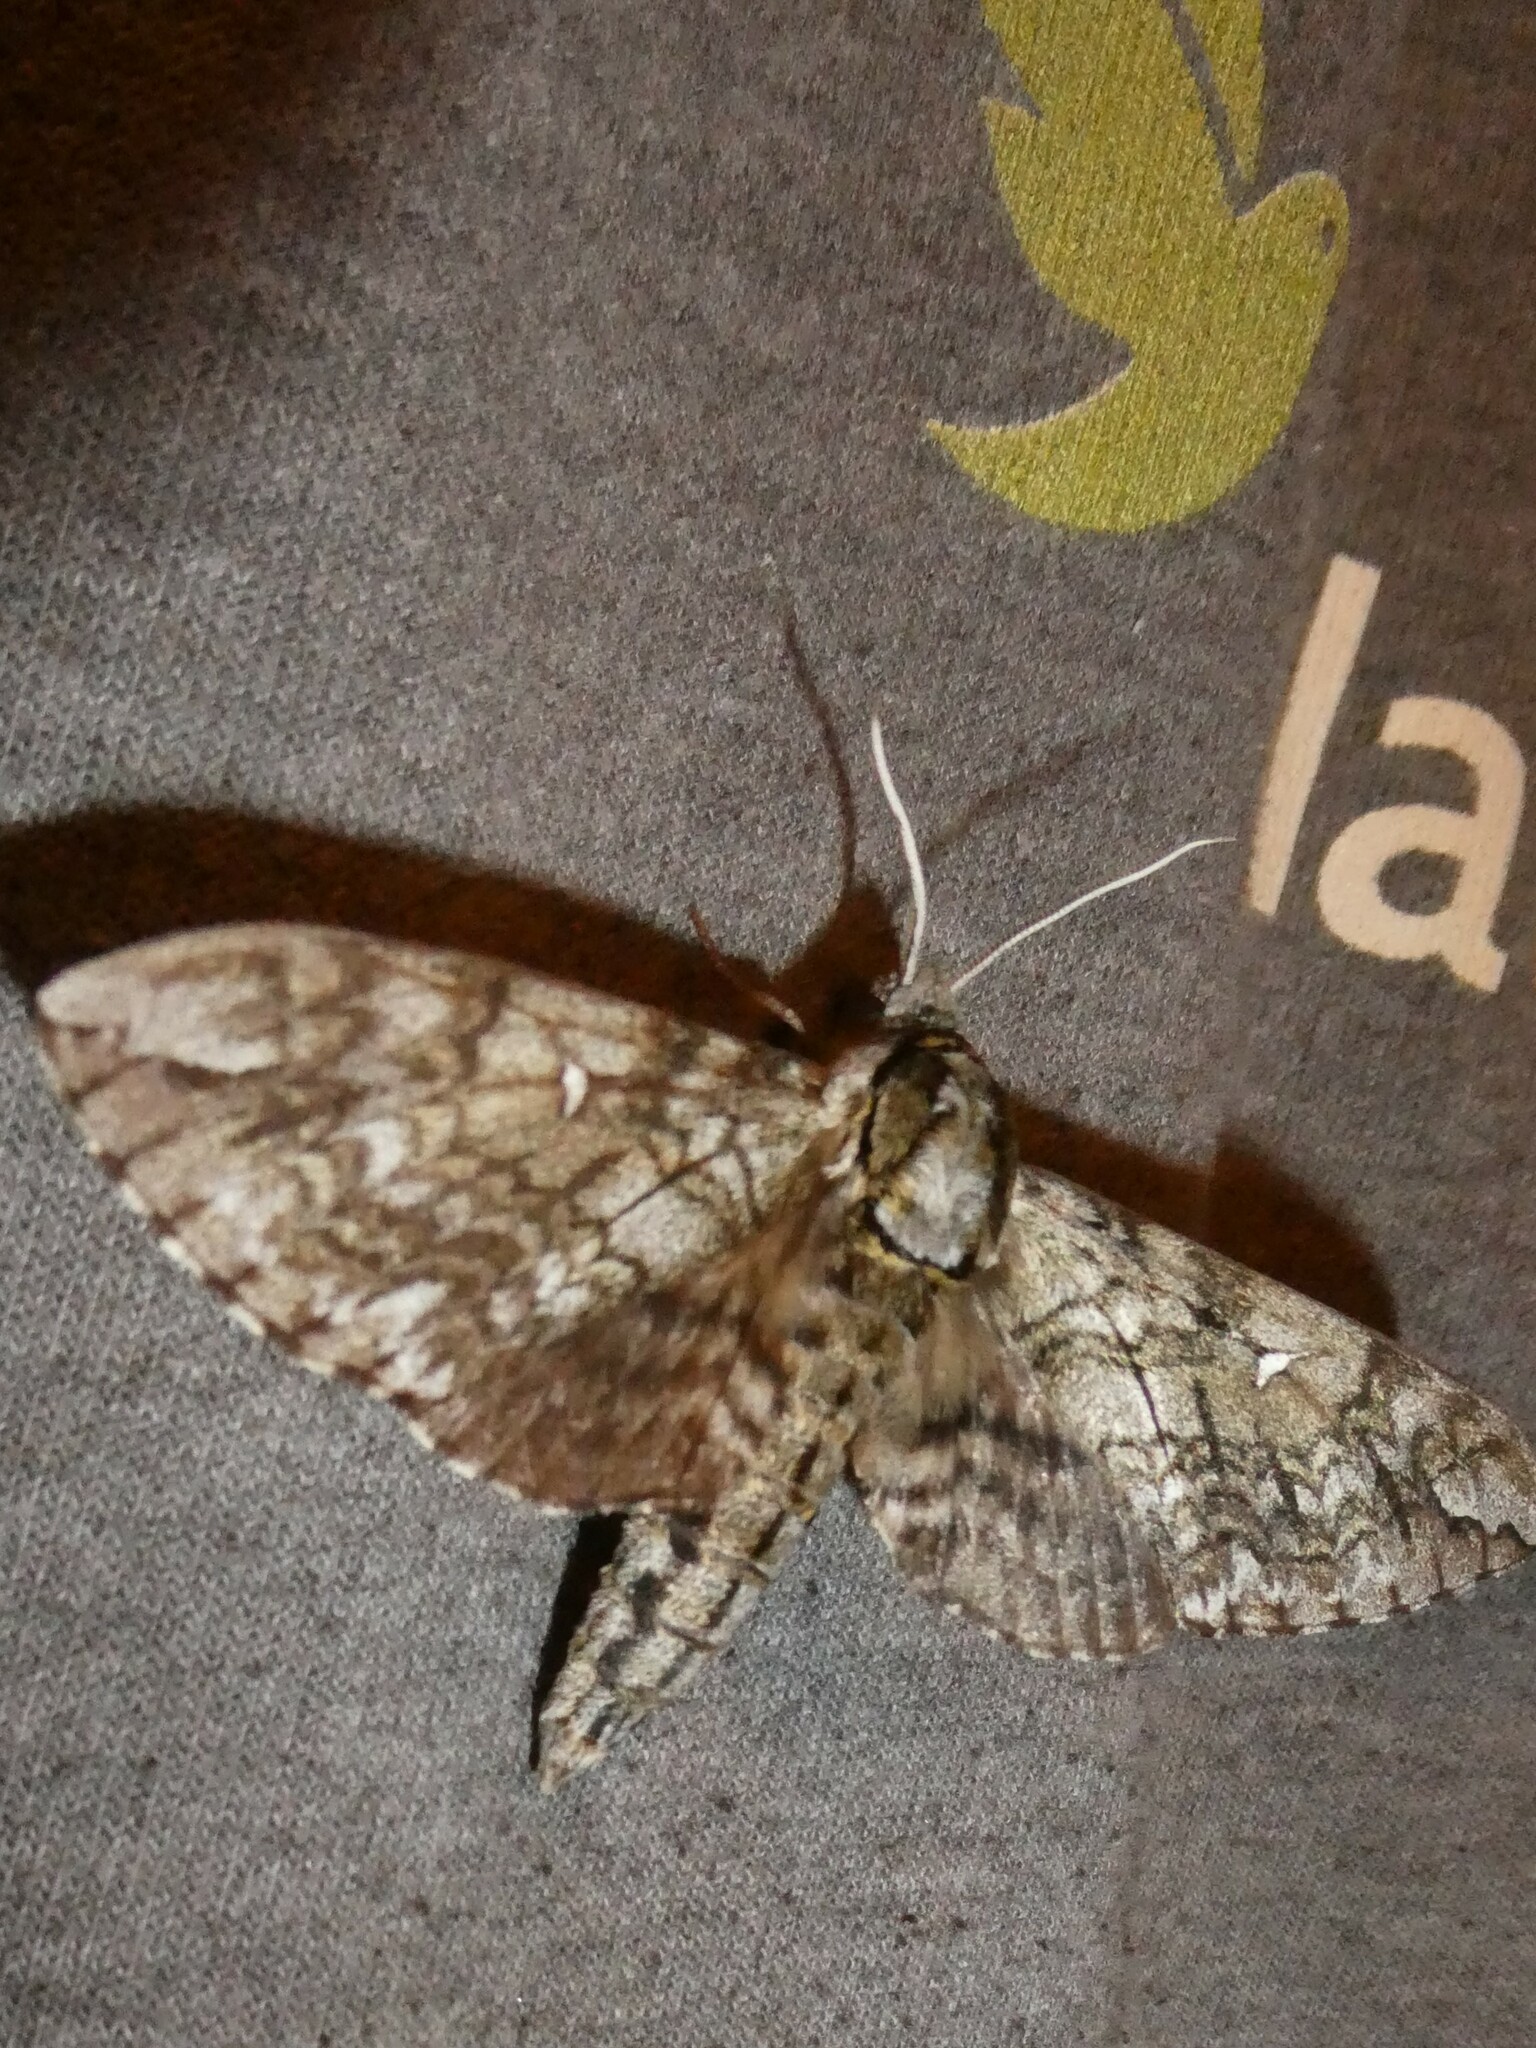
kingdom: Animalia
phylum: Arthropoda
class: Insecta
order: Lepidoptera
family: Sphingidae
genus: Ceratomia
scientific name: Ceratomia undulosa
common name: Waved sphinx
